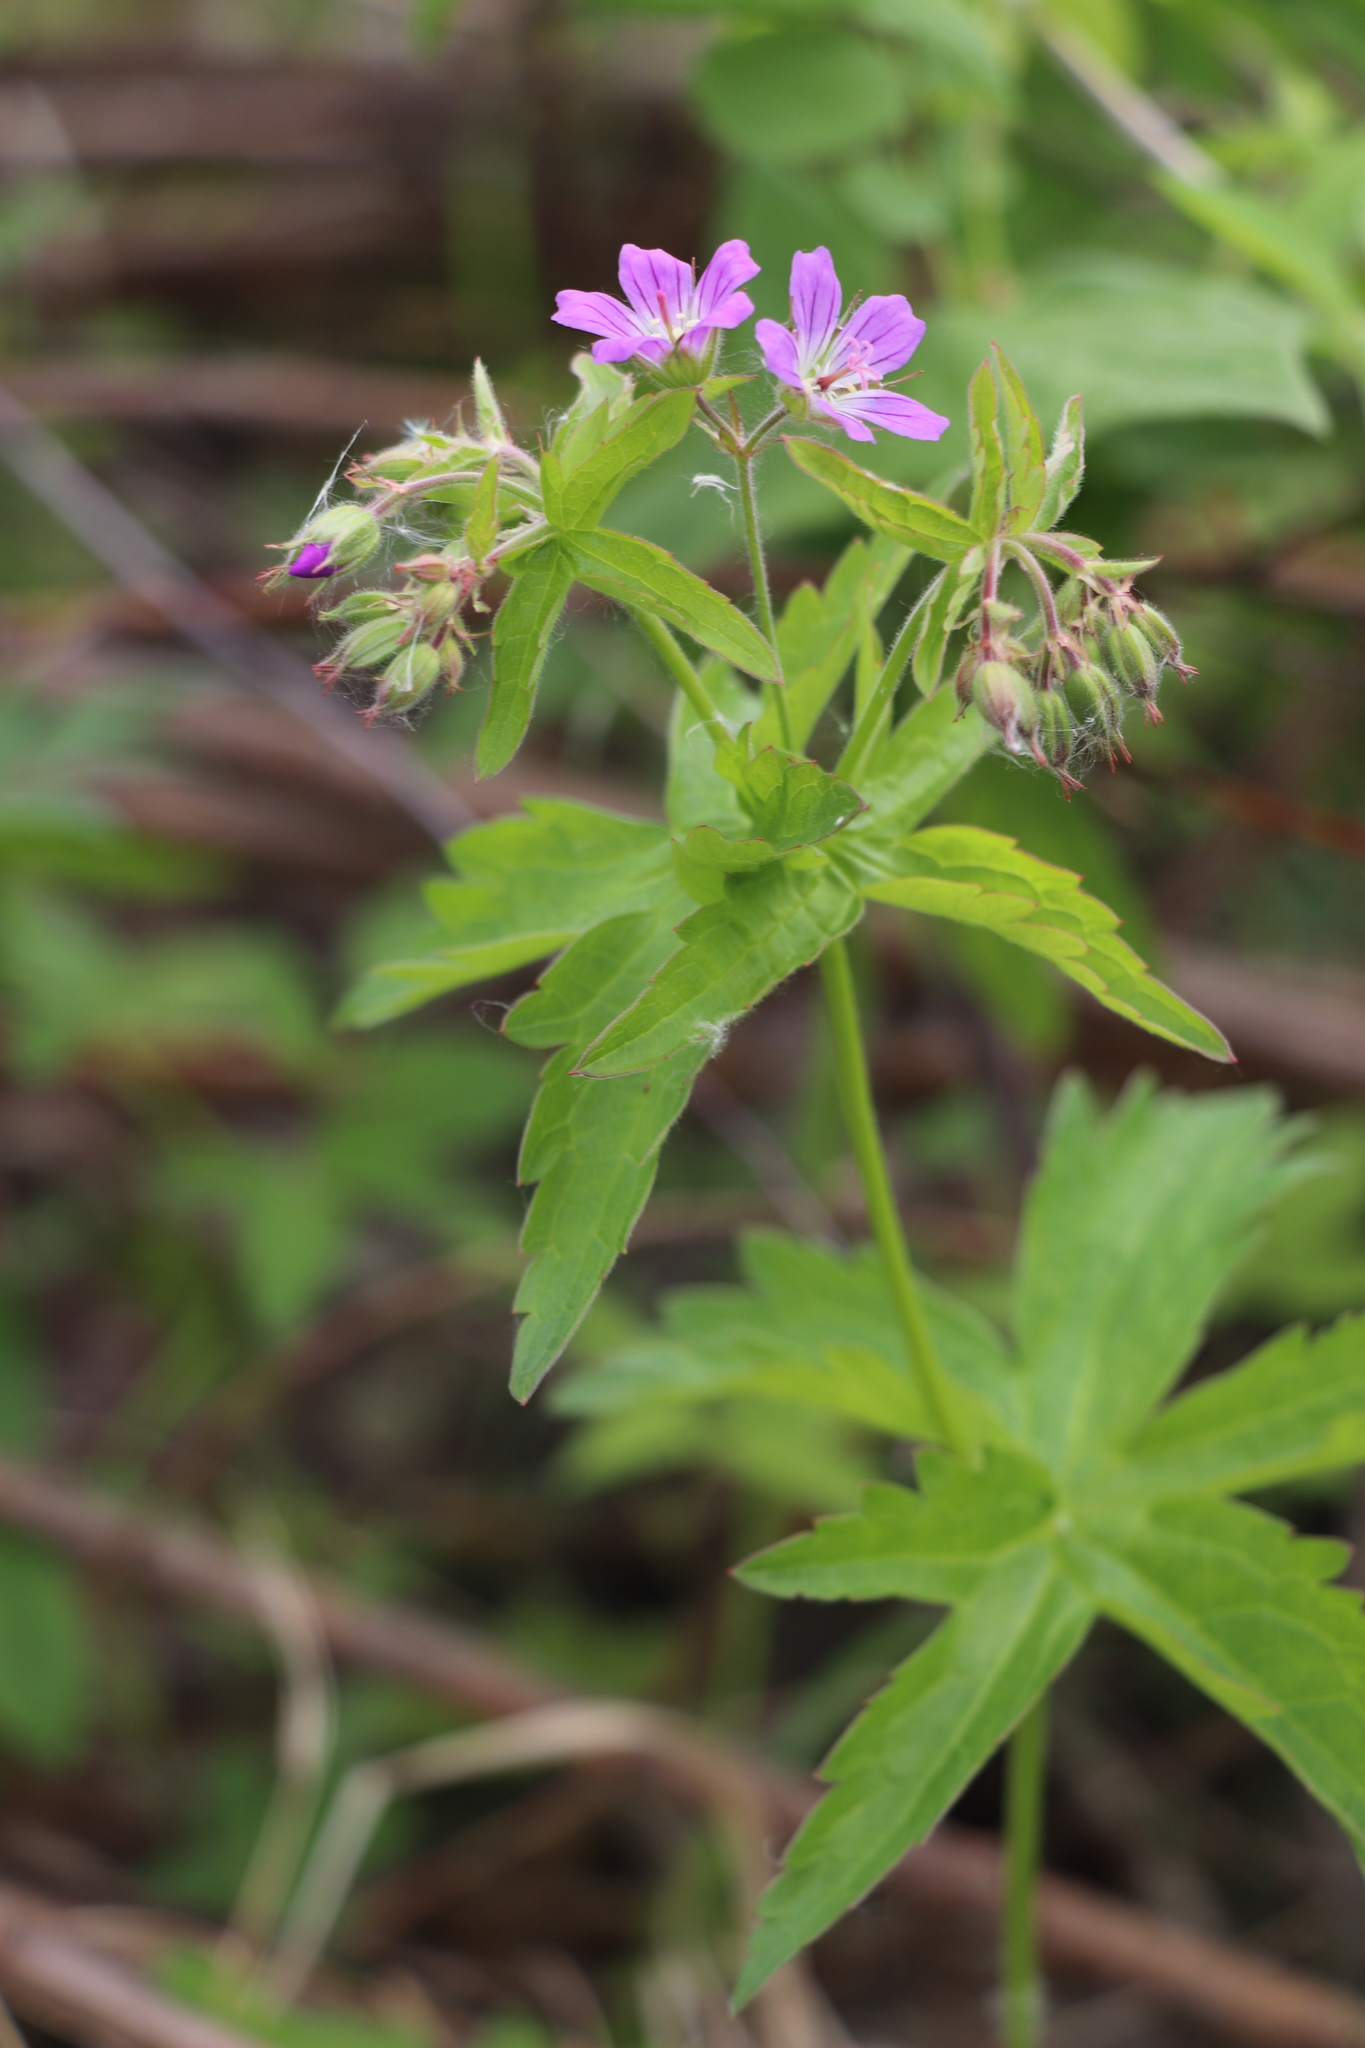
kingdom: Plantae
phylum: Tracheophyta
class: Magnoliopsida
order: Geraniales
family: Geraniaceae
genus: Geranium
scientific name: Geranium sylvaticum
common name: Wood crane's-bill
